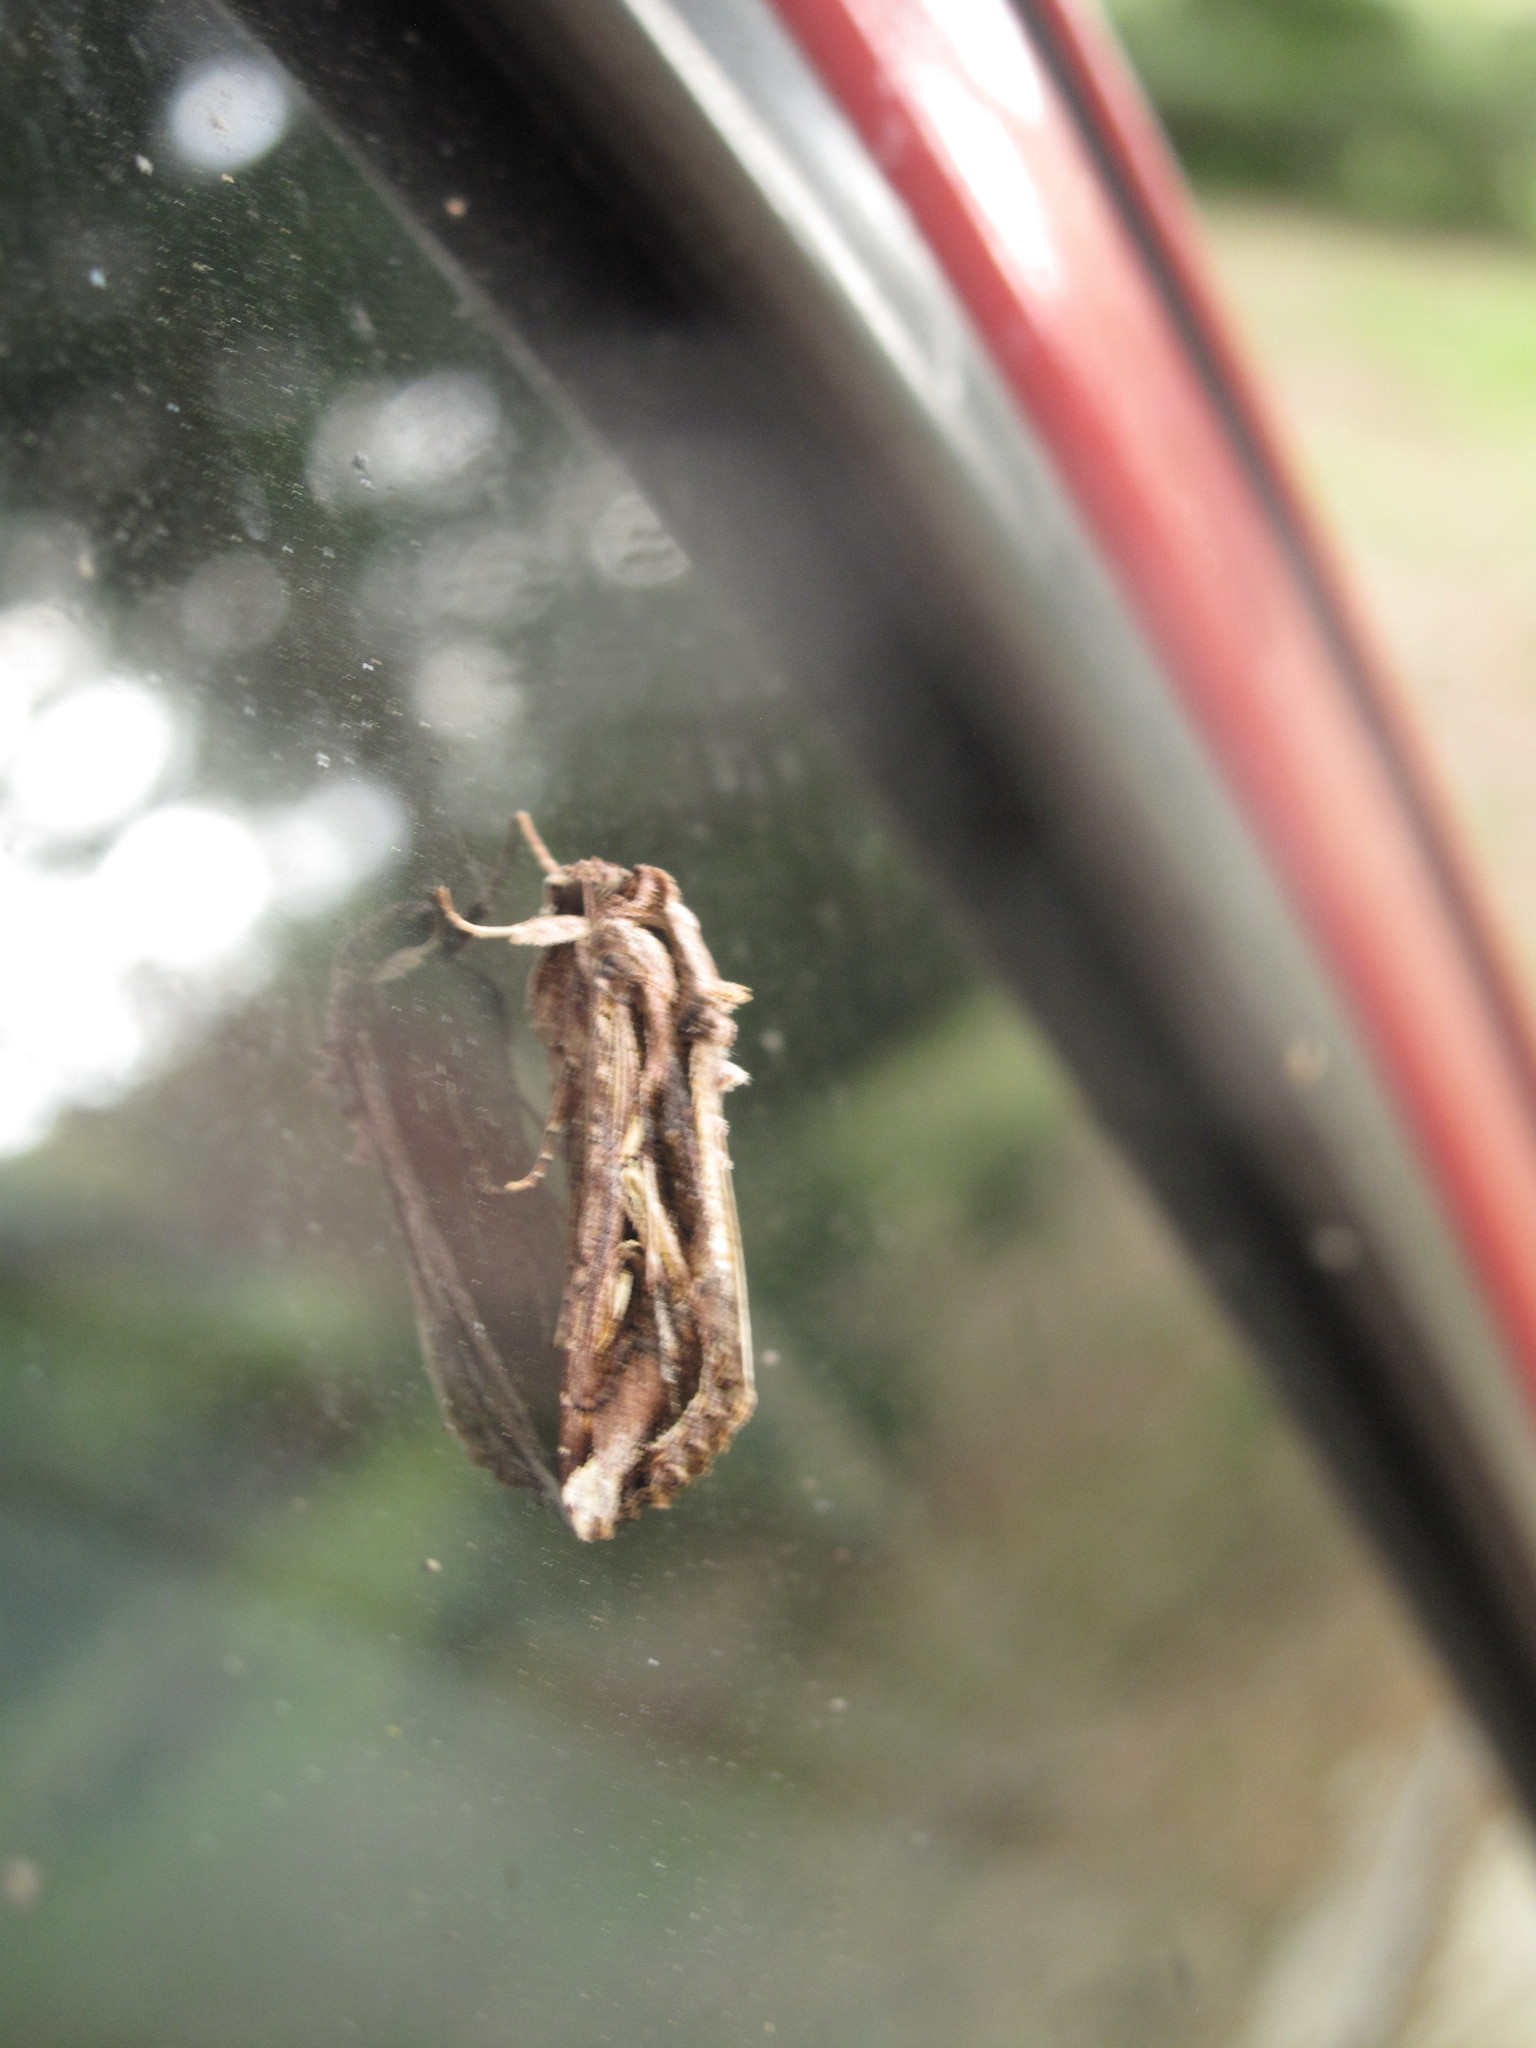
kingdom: Animalia
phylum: Arthropoda
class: Insecta
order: Lepidoptera
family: Noctuidae
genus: Spodoptera
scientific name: Spodoptera dolichos
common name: Sweetpotato armyworm
